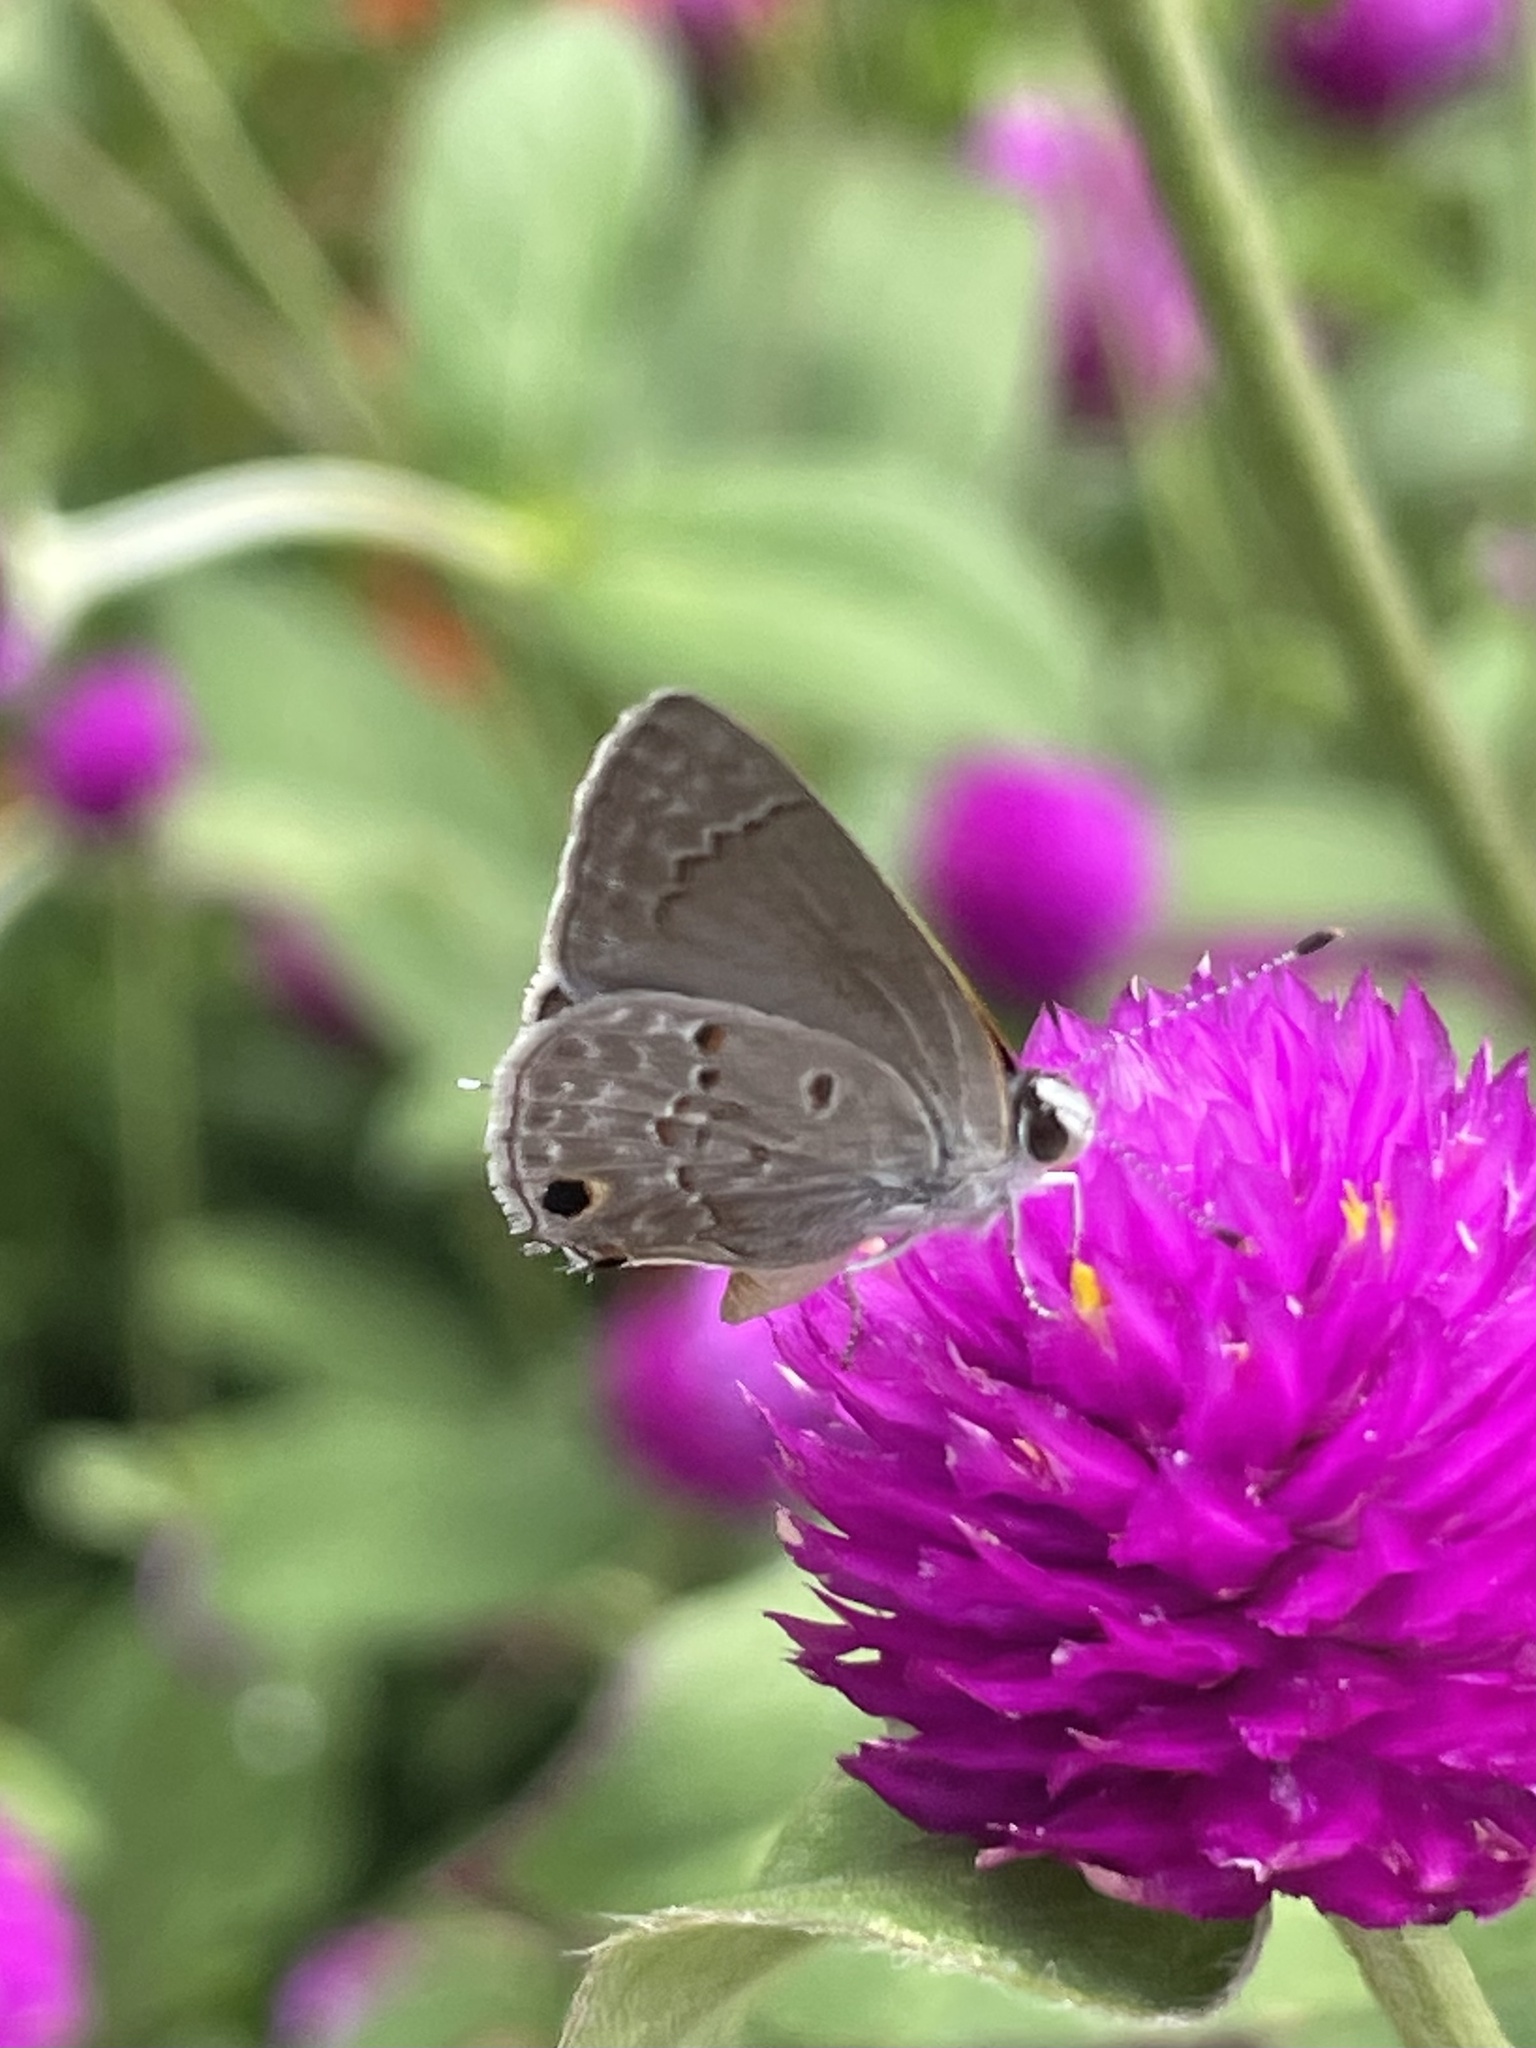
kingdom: Animalia
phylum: Arthropoda
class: Insecta
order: Lepidoptera
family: Lycaenidae
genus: Callicista
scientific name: Callicista columella
